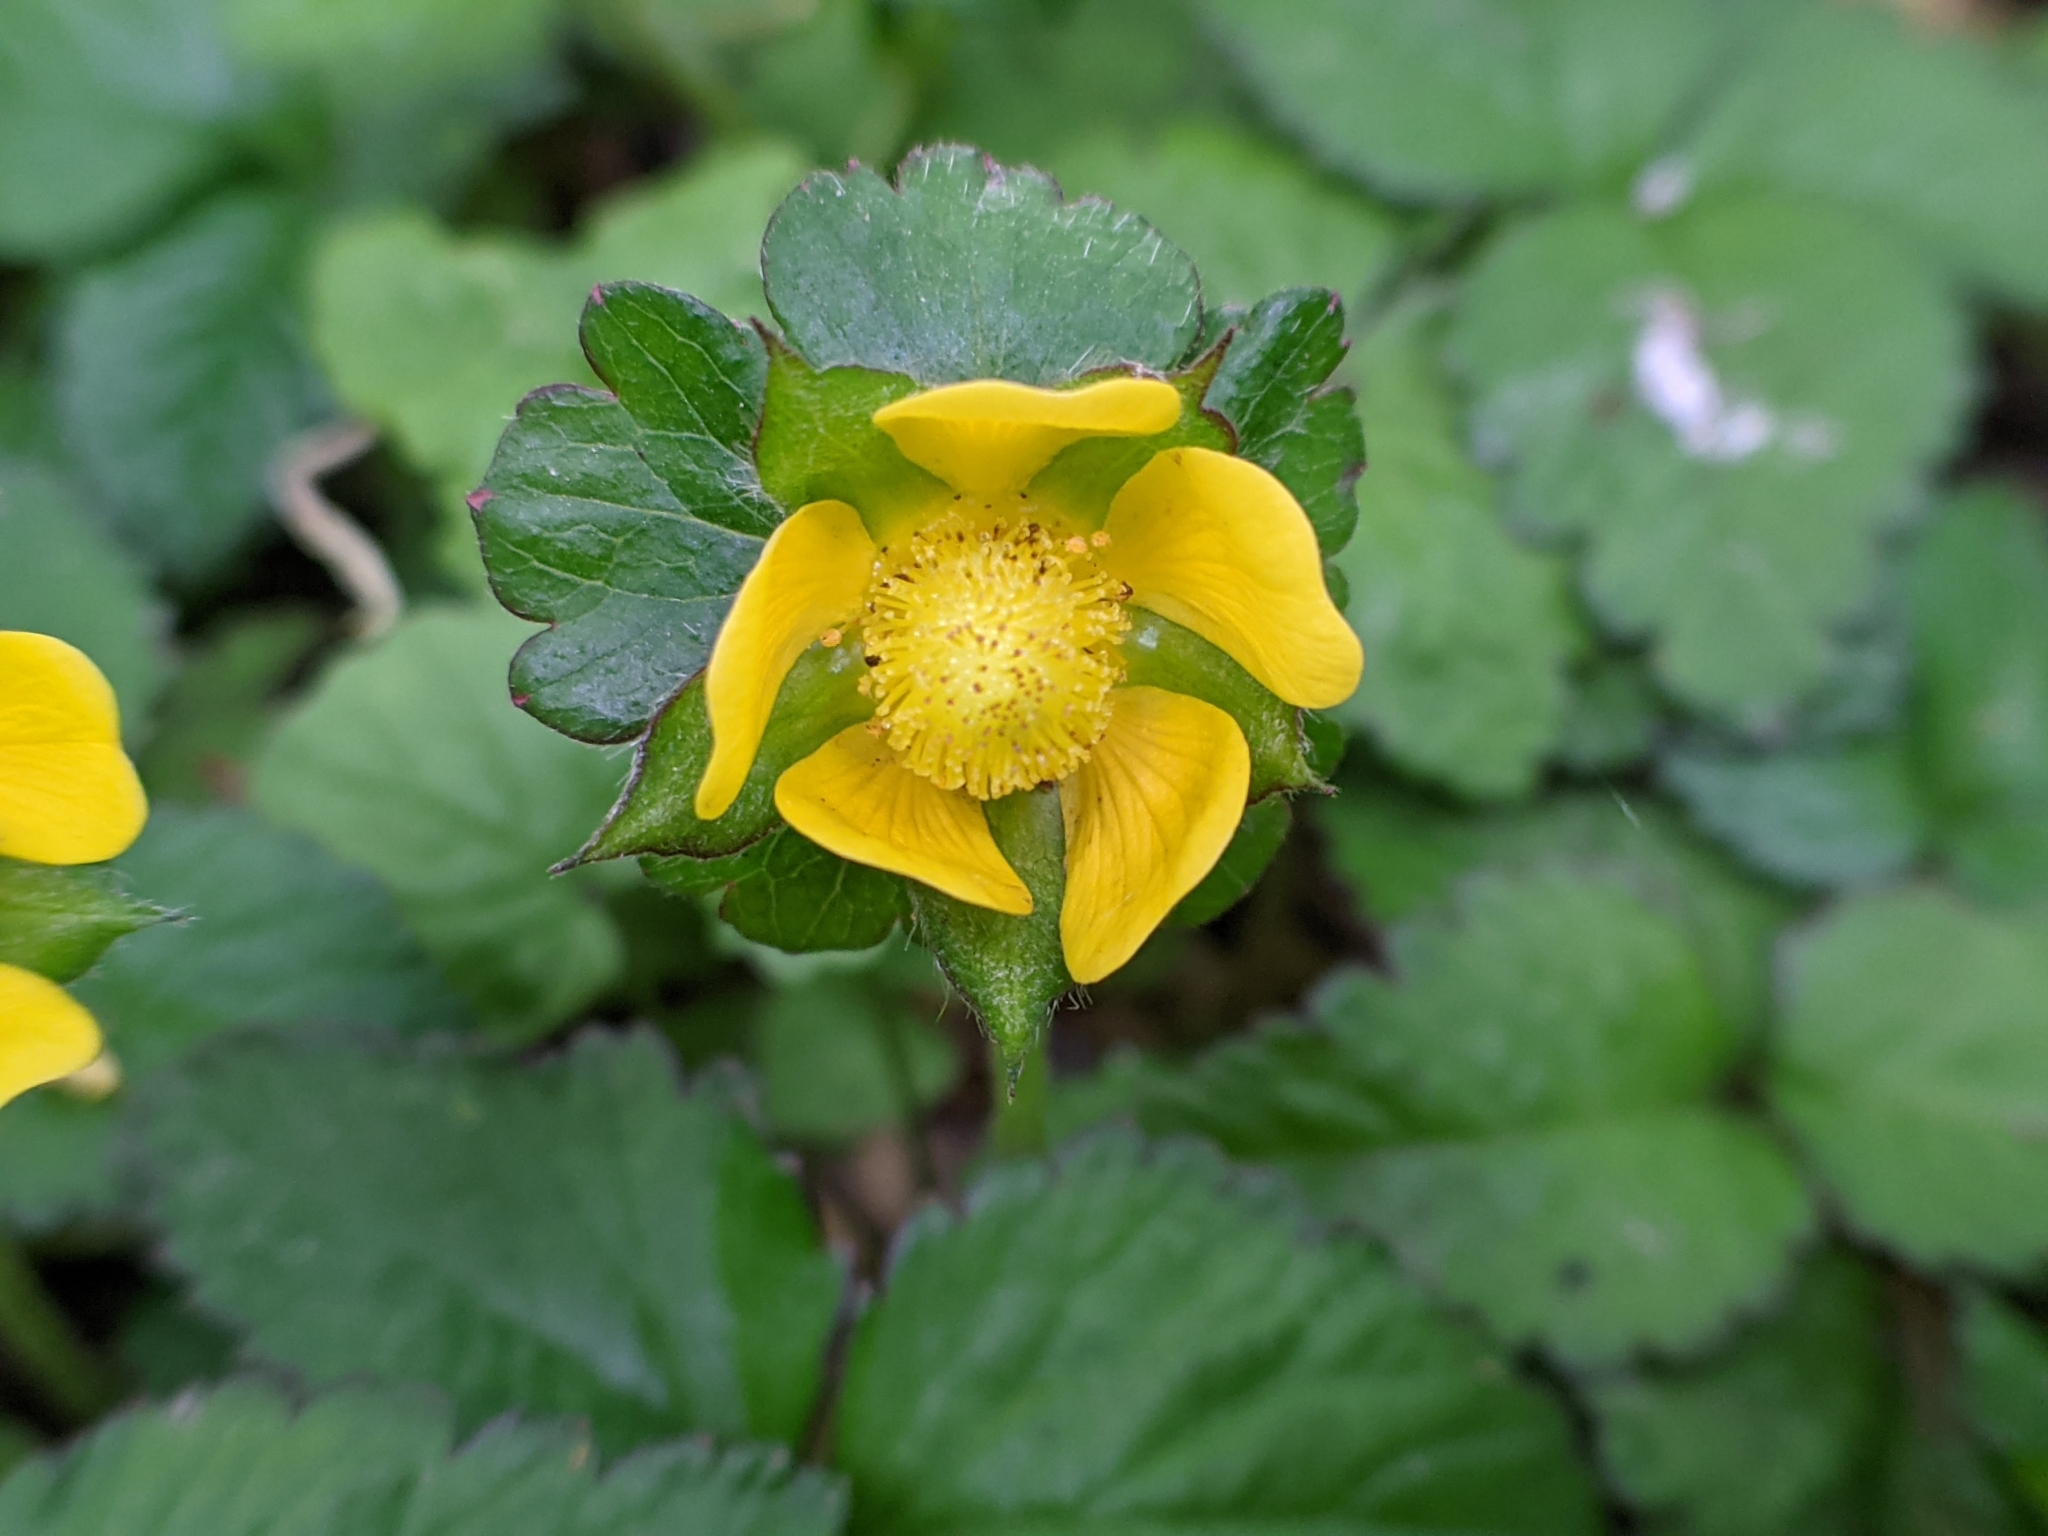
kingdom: Plantae
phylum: Tracheophyta
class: Magnoliopsida
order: Rosales
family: Rosaceae
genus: Potentilla
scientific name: Potentilla indica
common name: Yellow-flowered strawberry
